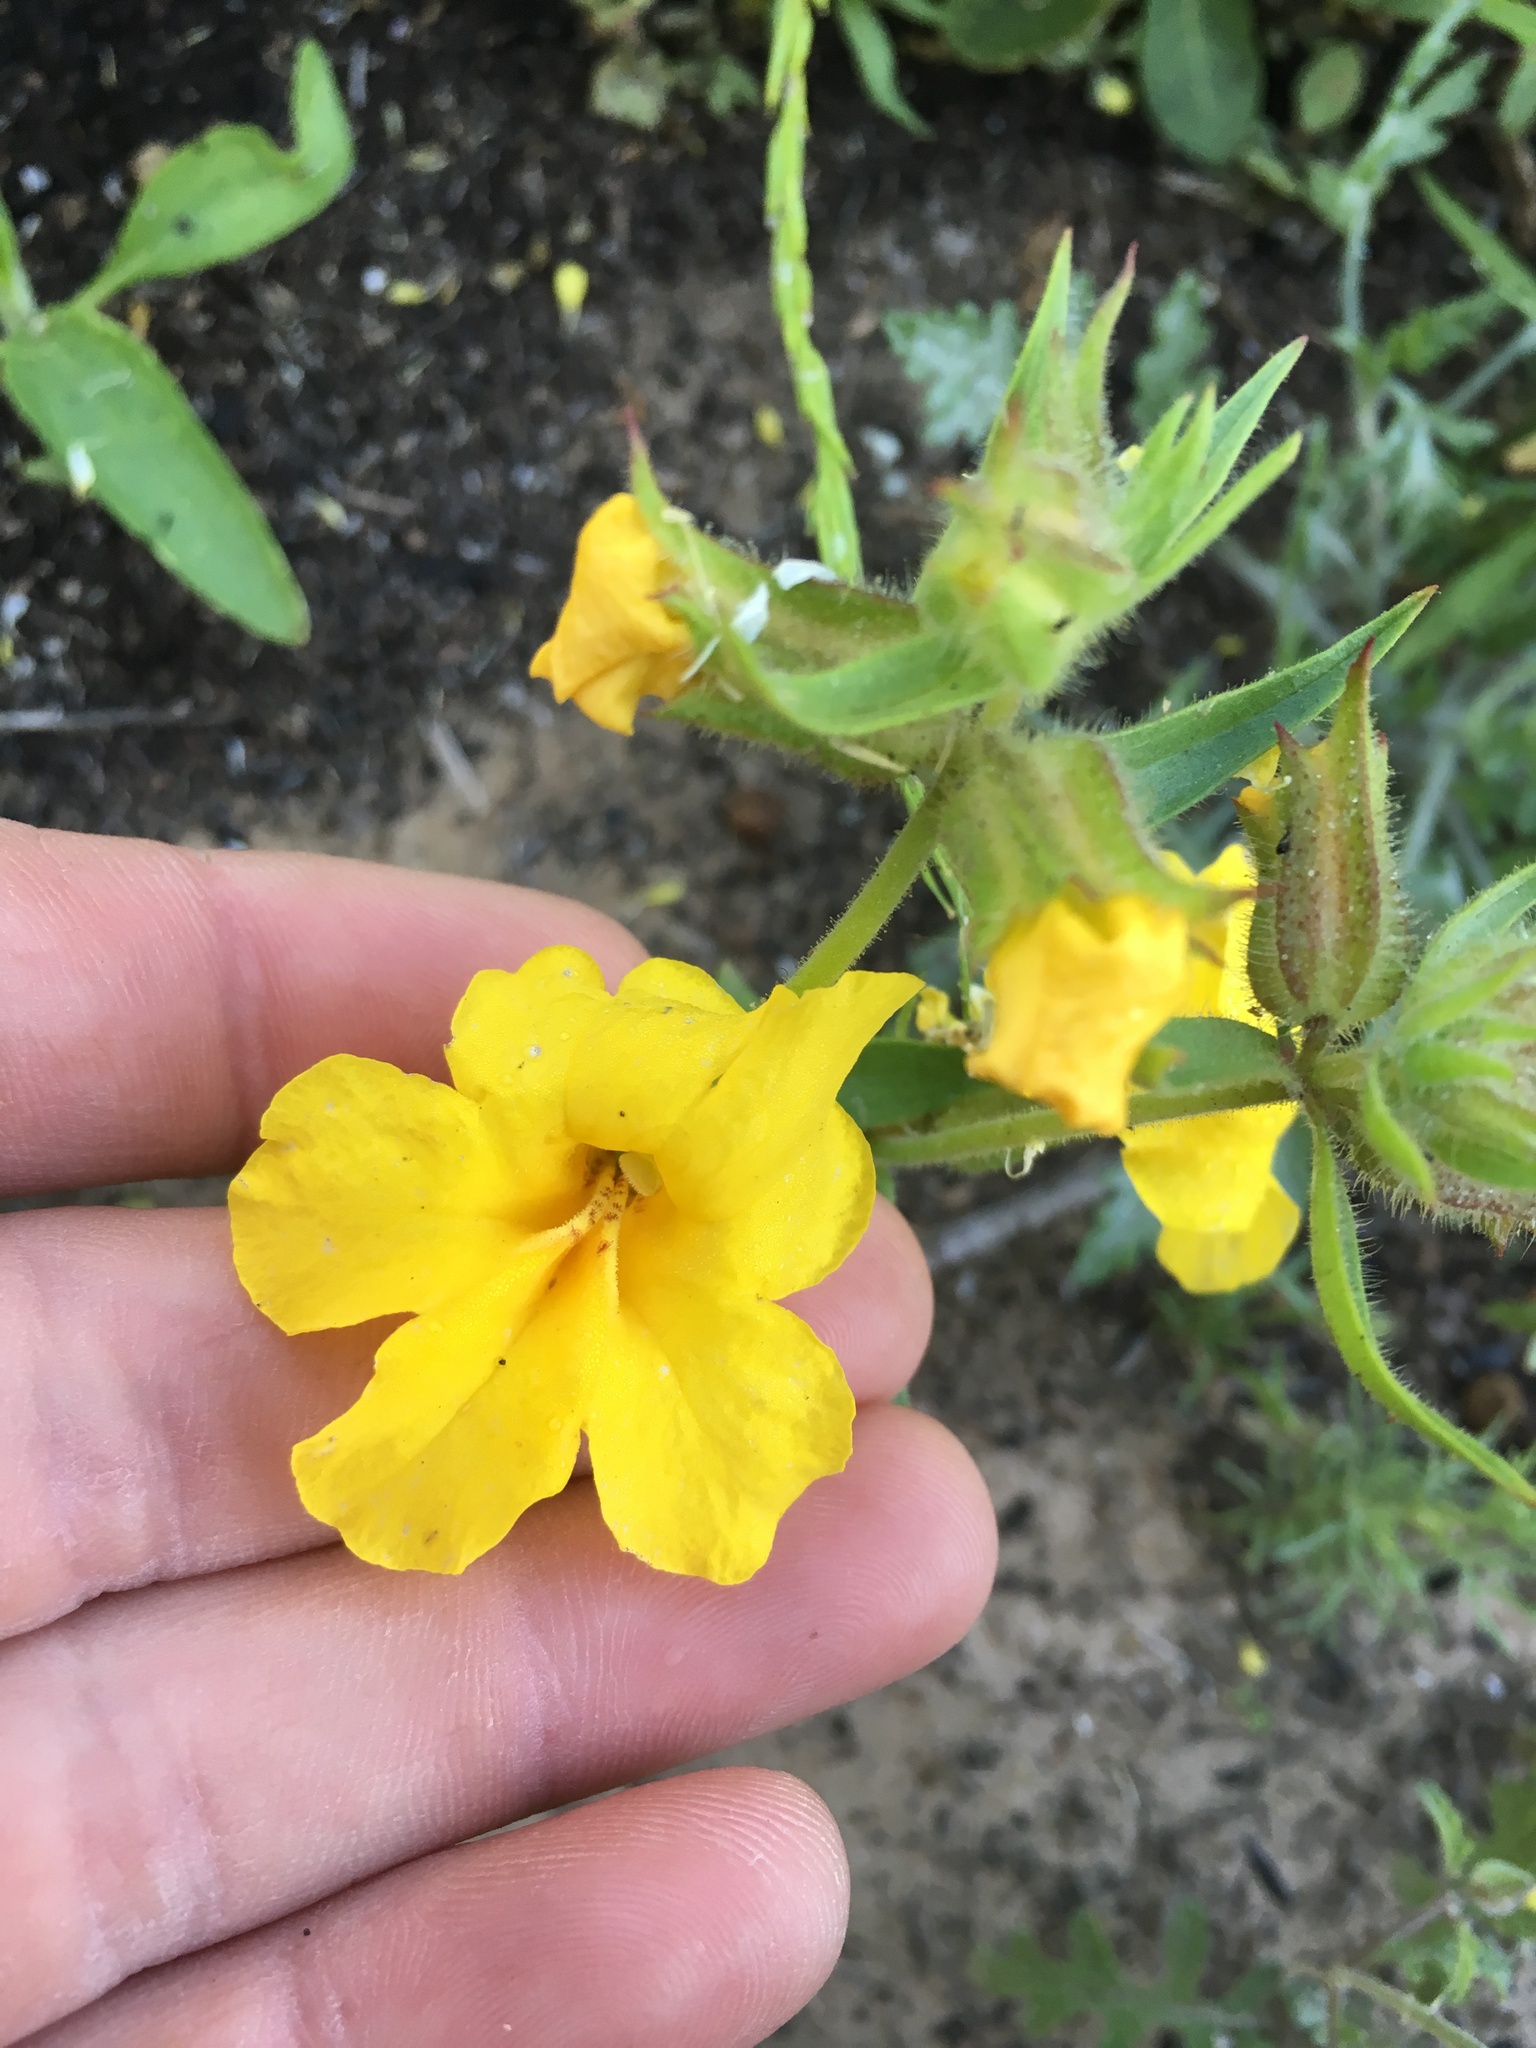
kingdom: Plantae
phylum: Tracheophyta
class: Magnoliopsida
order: Lamiales
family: Phrymaceae
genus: Diplacus
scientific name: Diplacus brevipes
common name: Wide-throat yellow monkey-flower
